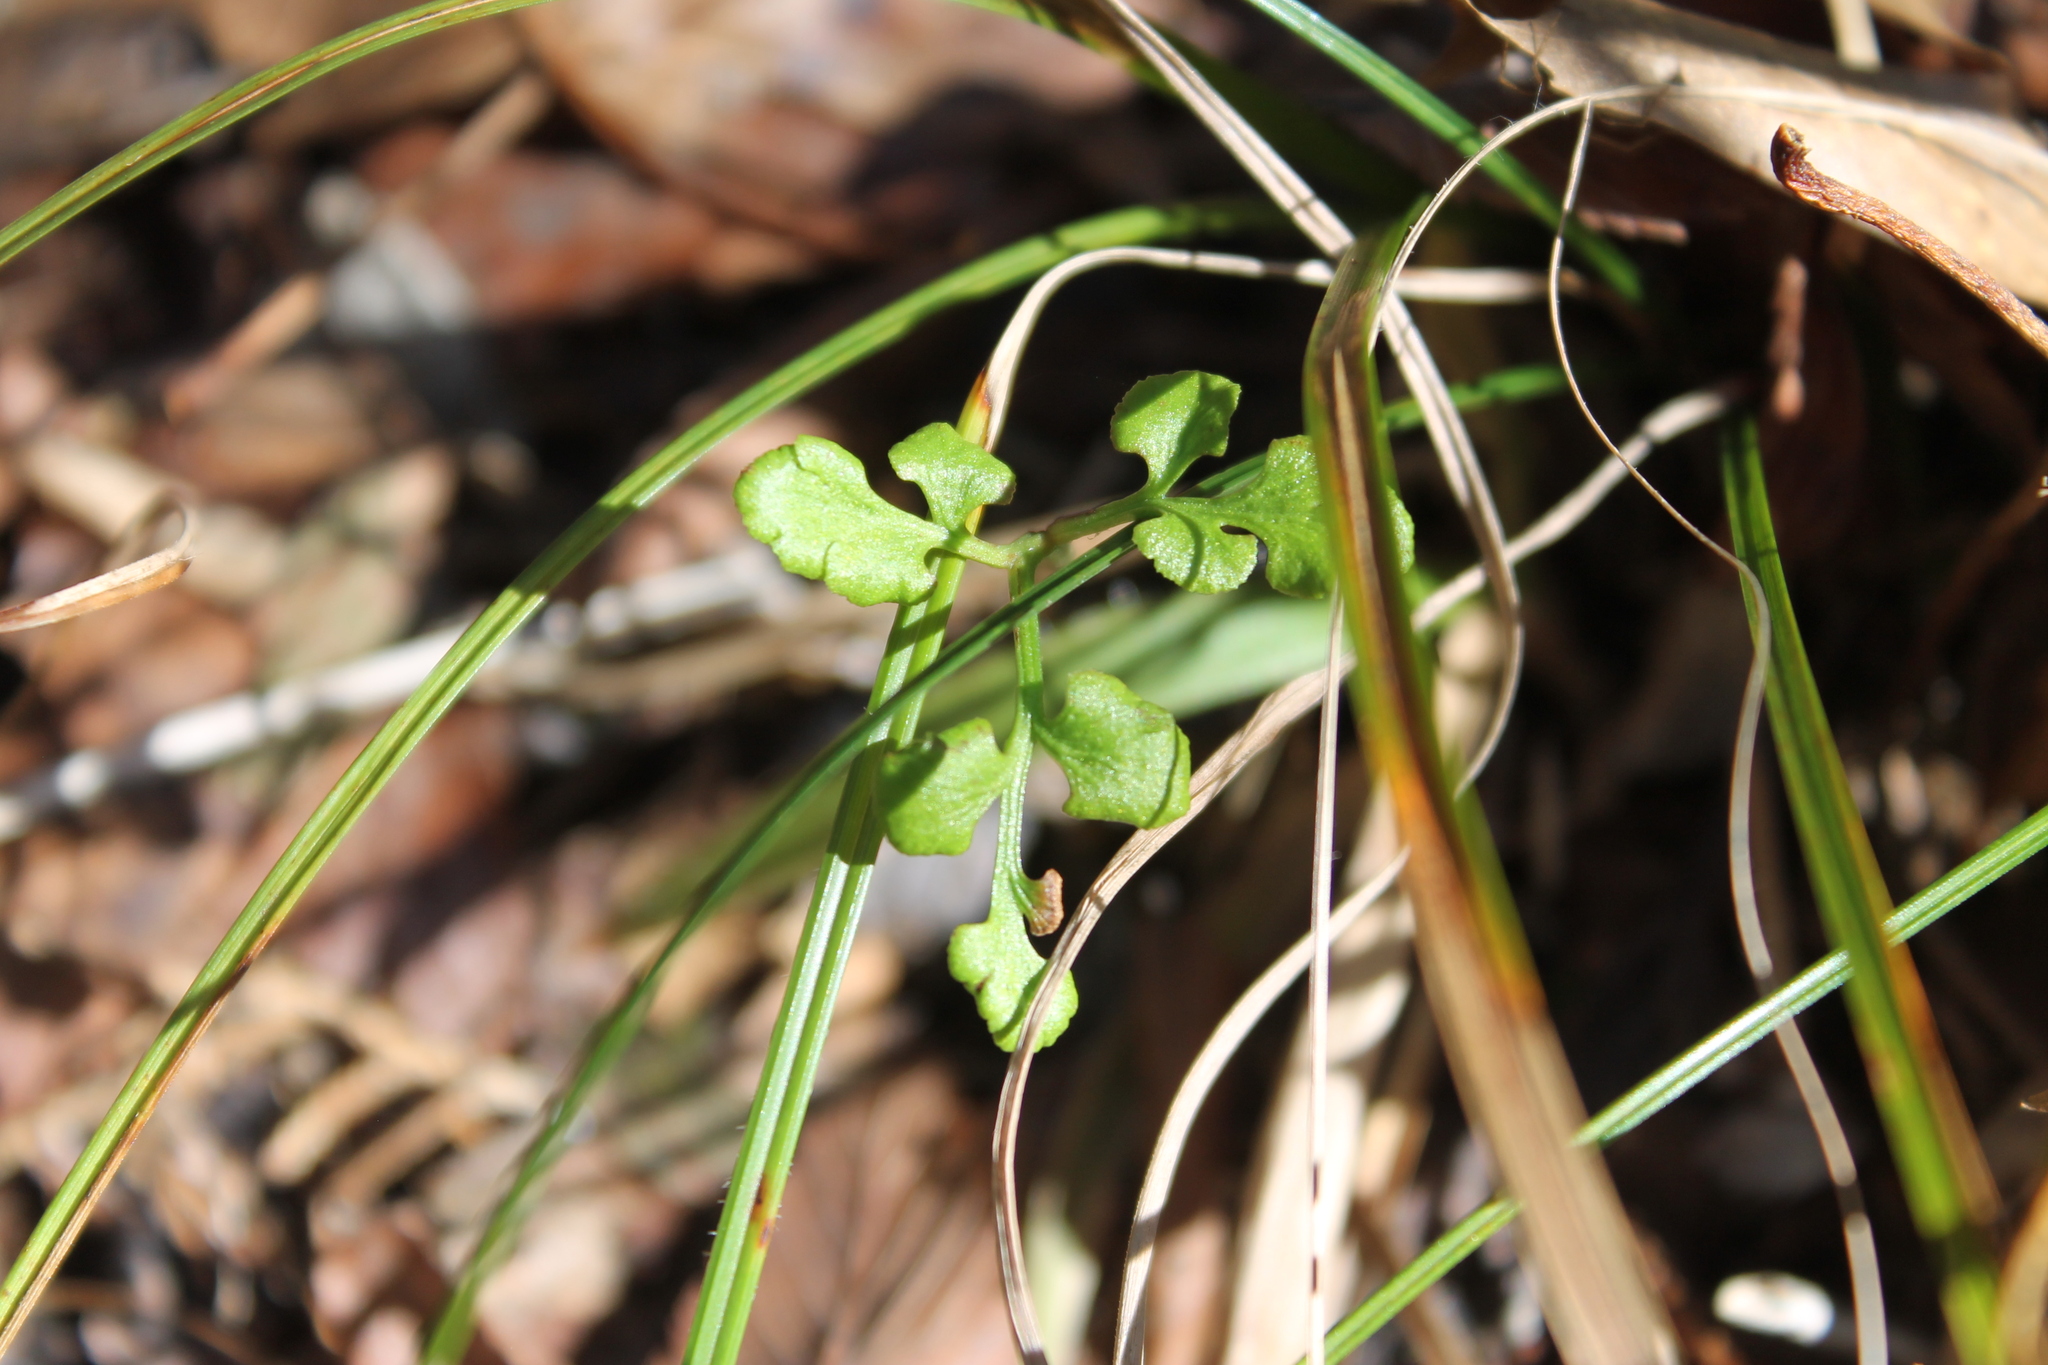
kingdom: Plantae
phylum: Tracheophyta
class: Polypodiopsida
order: Ophioglossales
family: Ophioglossaceae
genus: Sceptridium
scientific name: Sceptridium jenmanii
